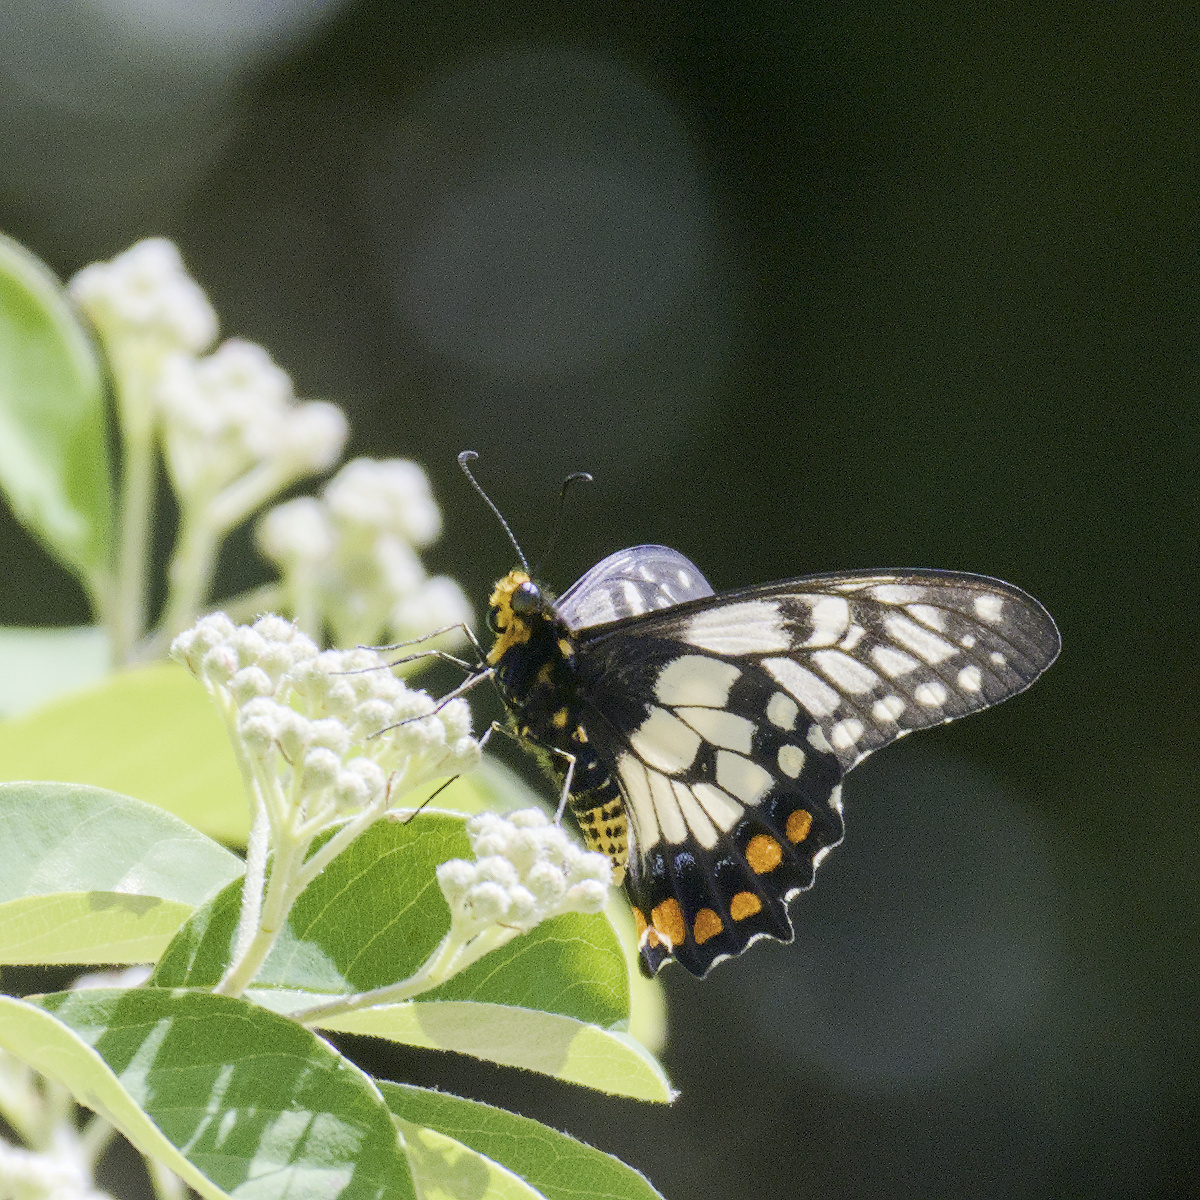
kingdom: Animalia
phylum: Arthropoda
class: Insecta
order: Lepidoptera
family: Papilionidae
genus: Papilio
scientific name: Papilio anactus
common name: Dingy swallowtail
